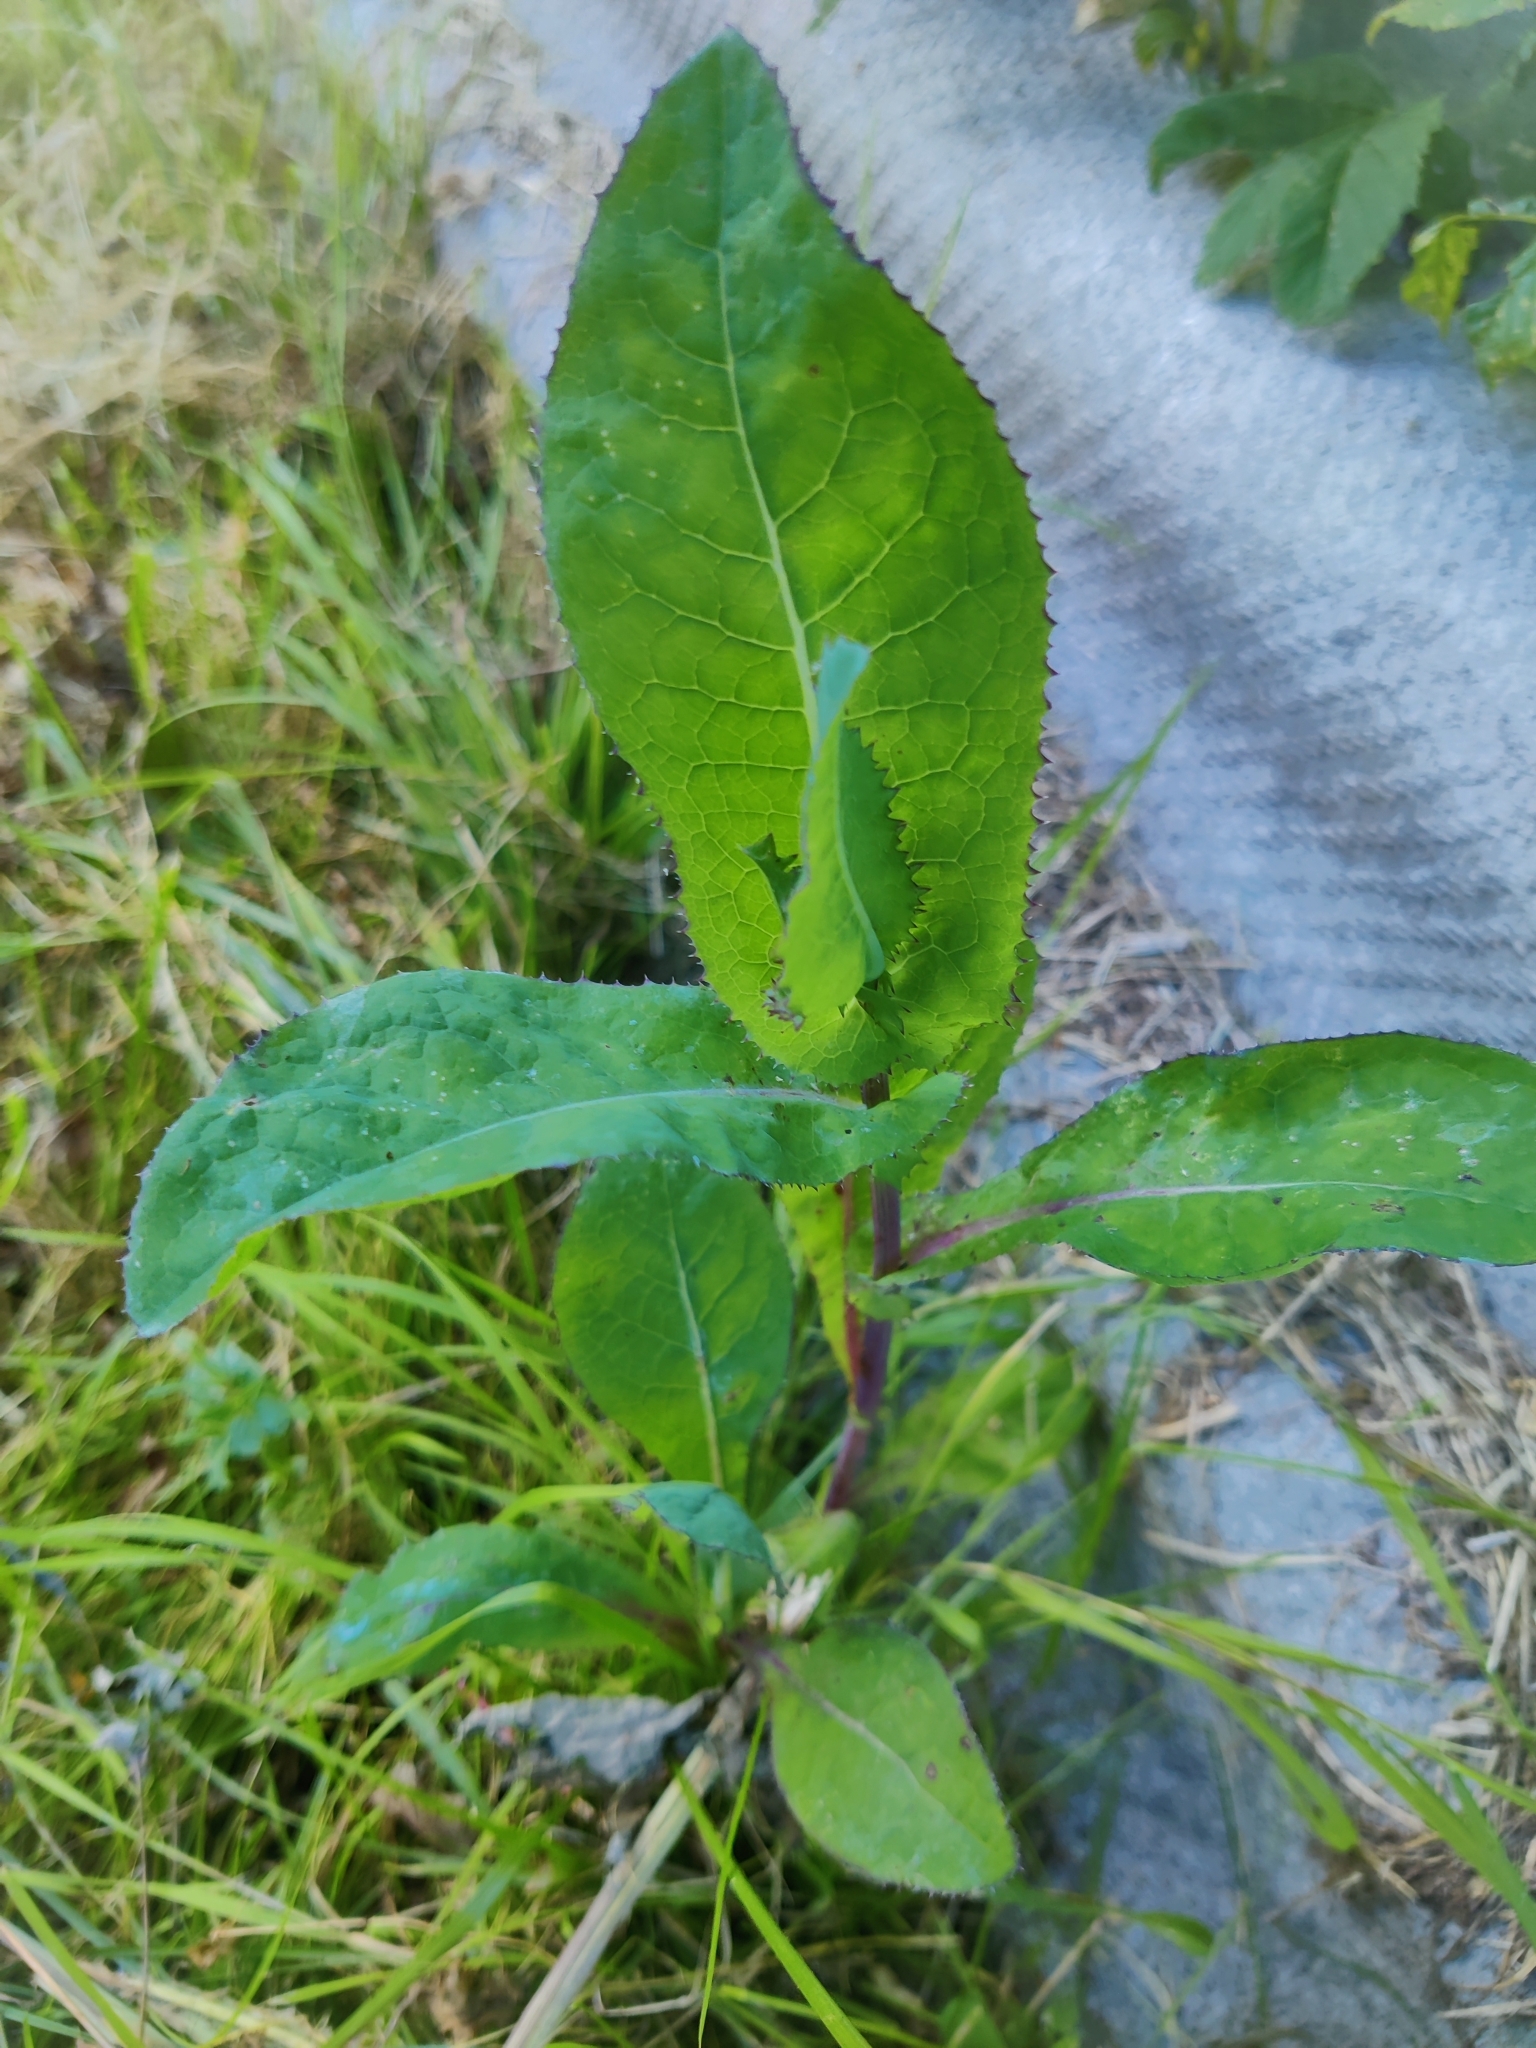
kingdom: Plantae
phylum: Tracheophyta
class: Magnoliopsida
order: Asterales
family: Asteraceae
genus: Sonchus
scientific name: Sonchus oleraceus
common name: Common sowthistle
